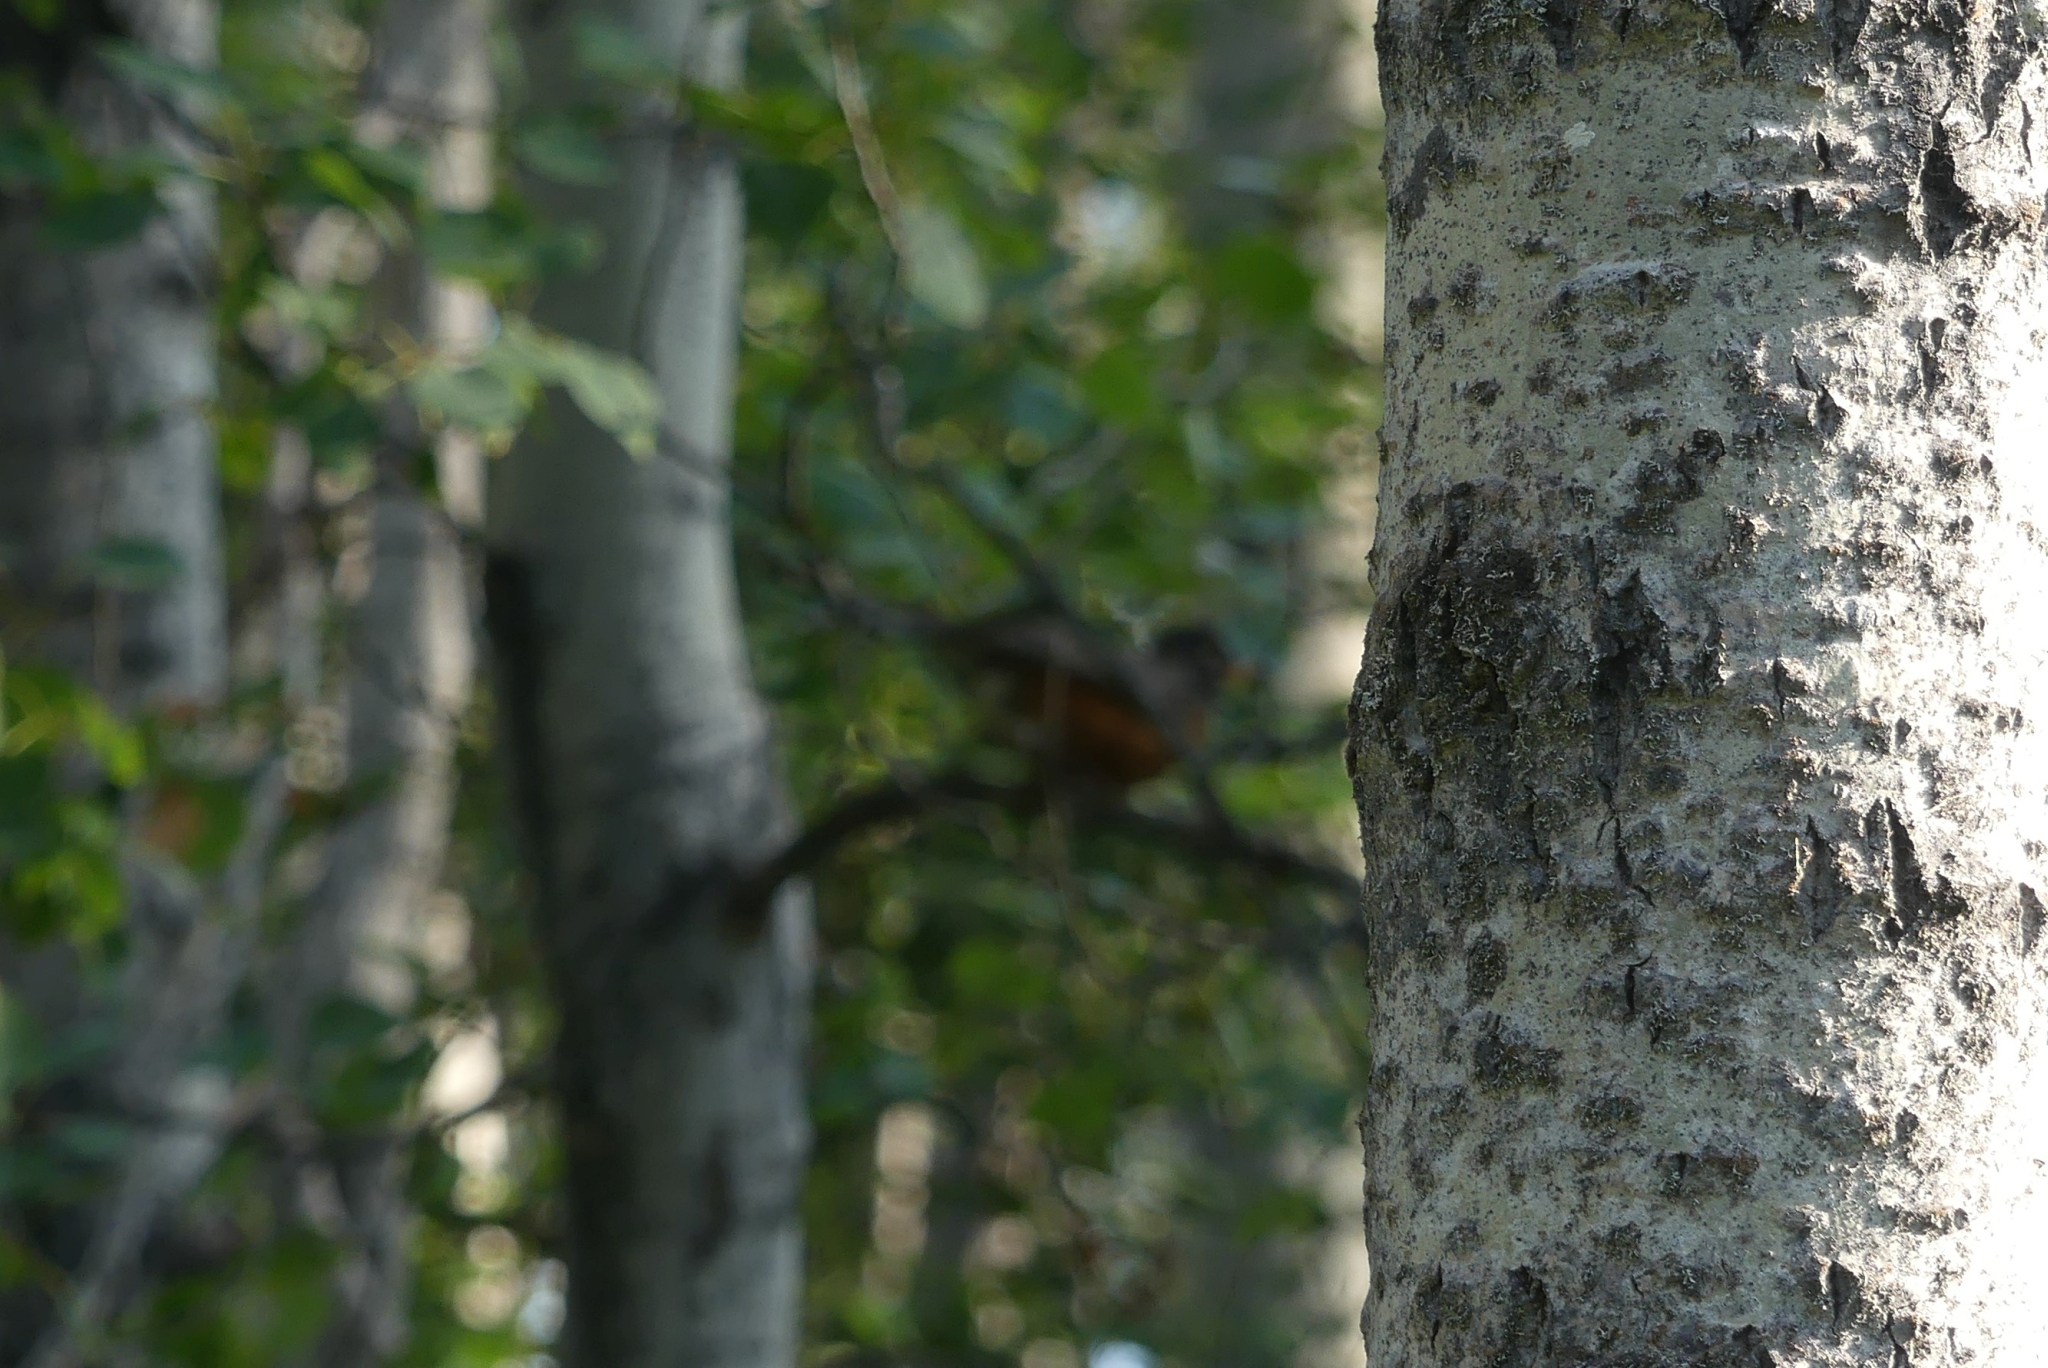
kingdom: Animalia
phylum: Chordata
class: Aves
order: Passeriformes
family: Turdidae
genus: Turdus
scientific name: Turdus migratorius
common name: American robin
